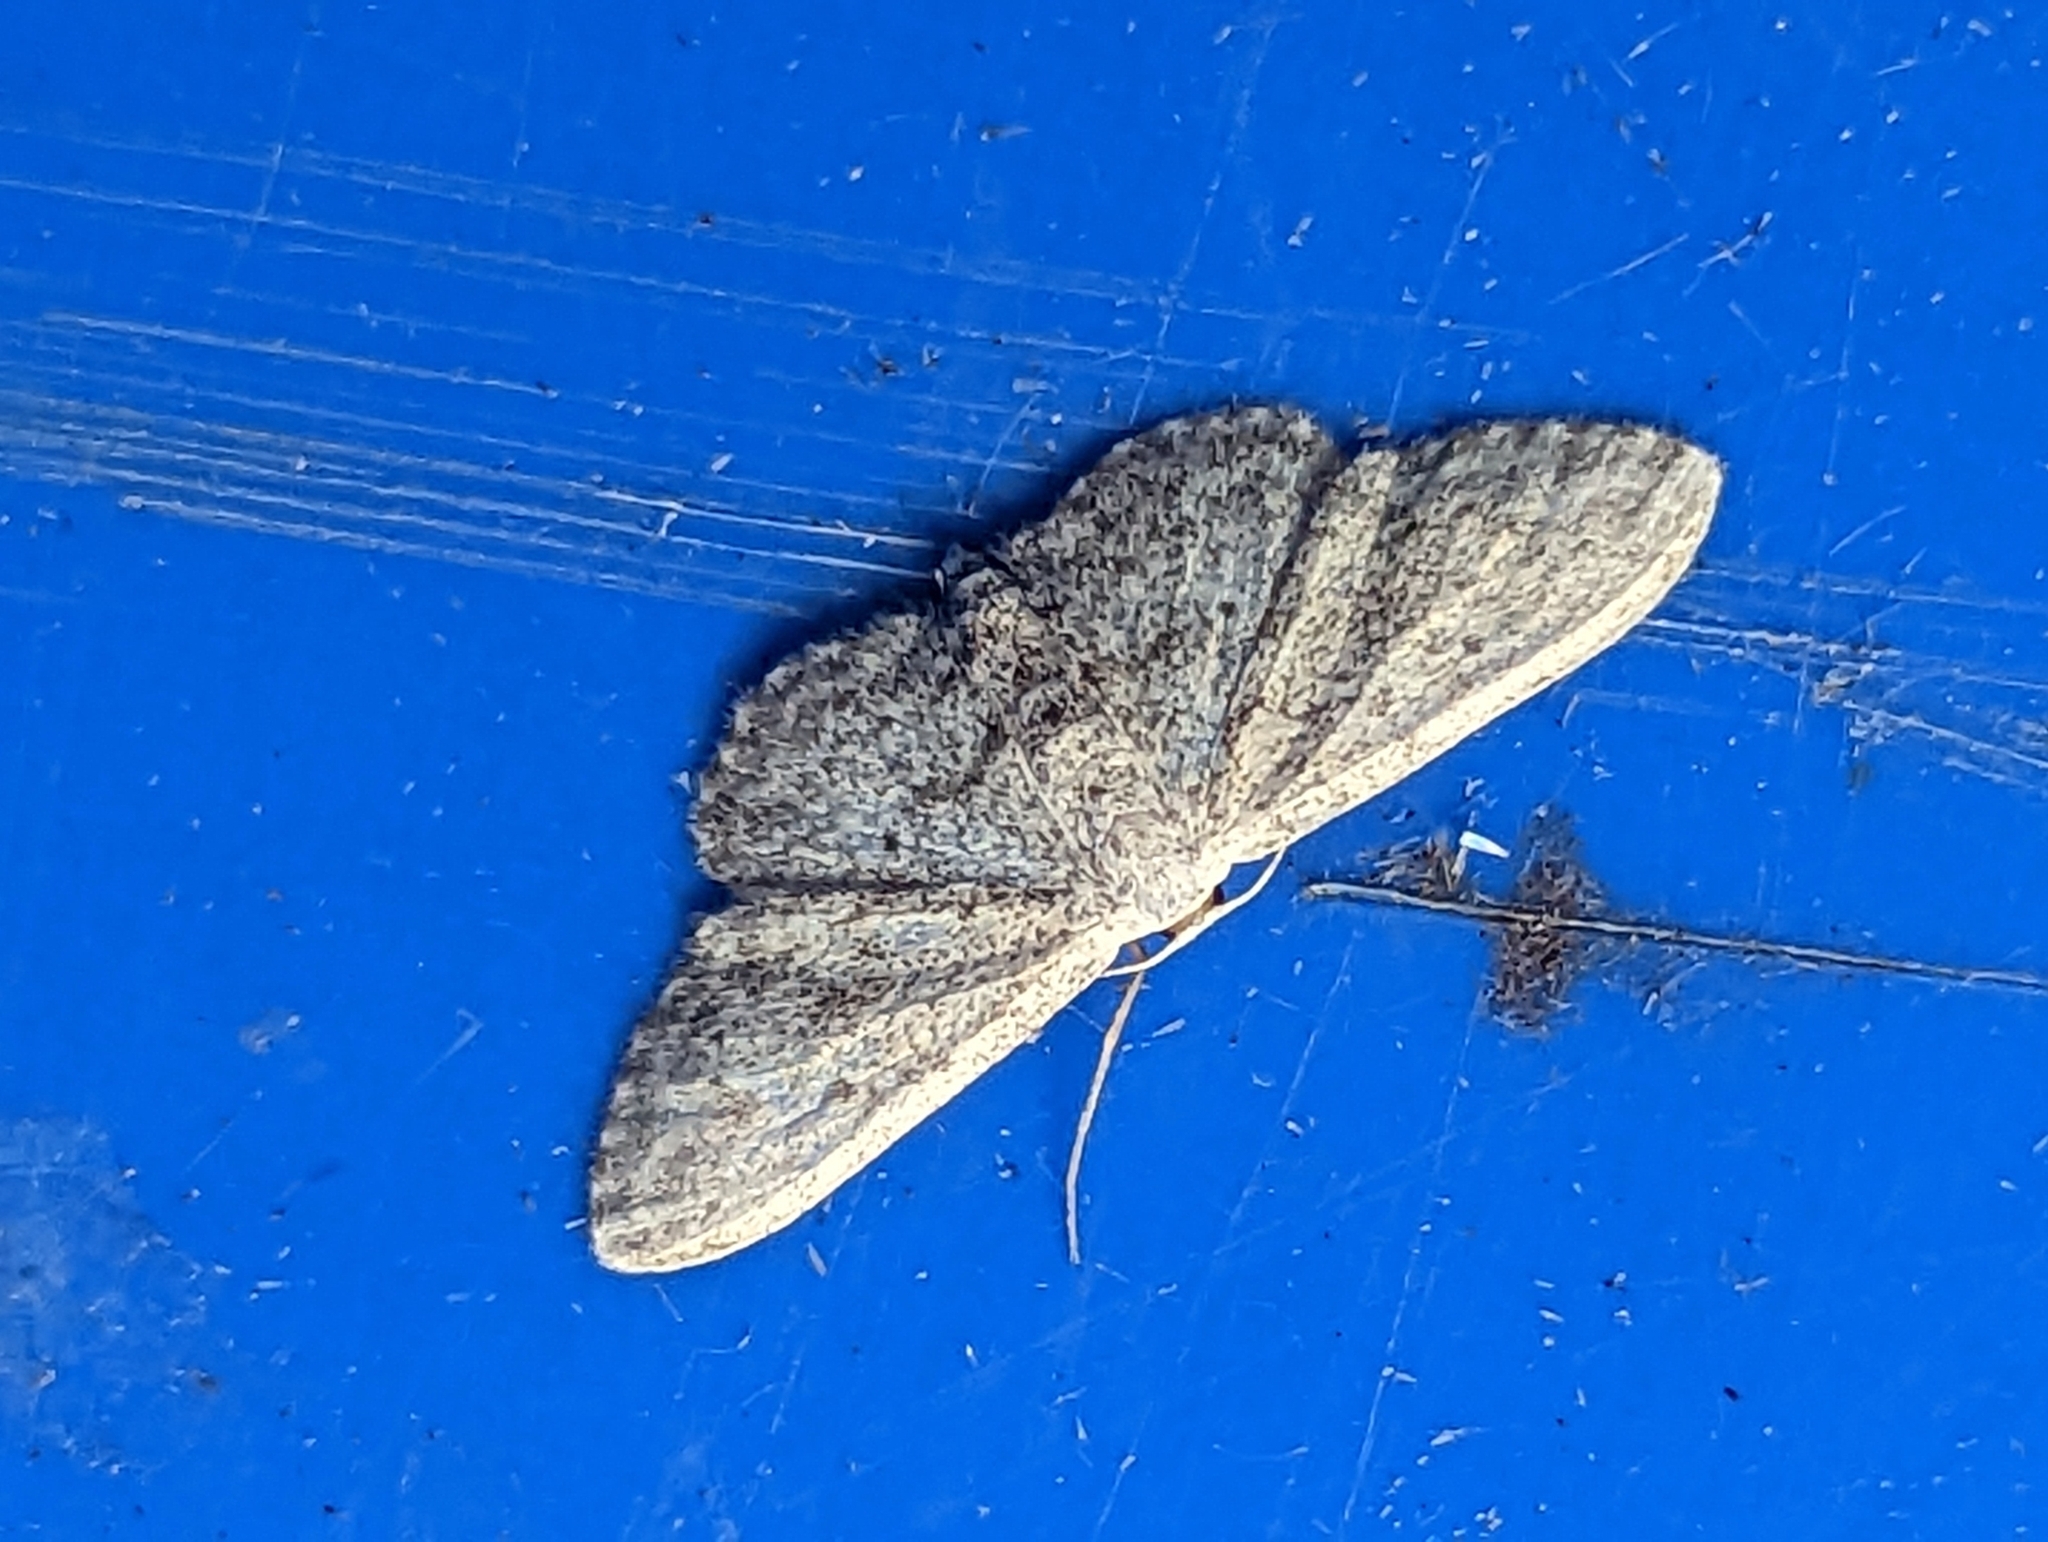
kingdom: Animalia
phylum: Arthropoda
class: Insecta
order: Lepidoptera
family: Geometridae
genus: Idaea
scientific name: Idaea seriata
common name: Small dusty wave
